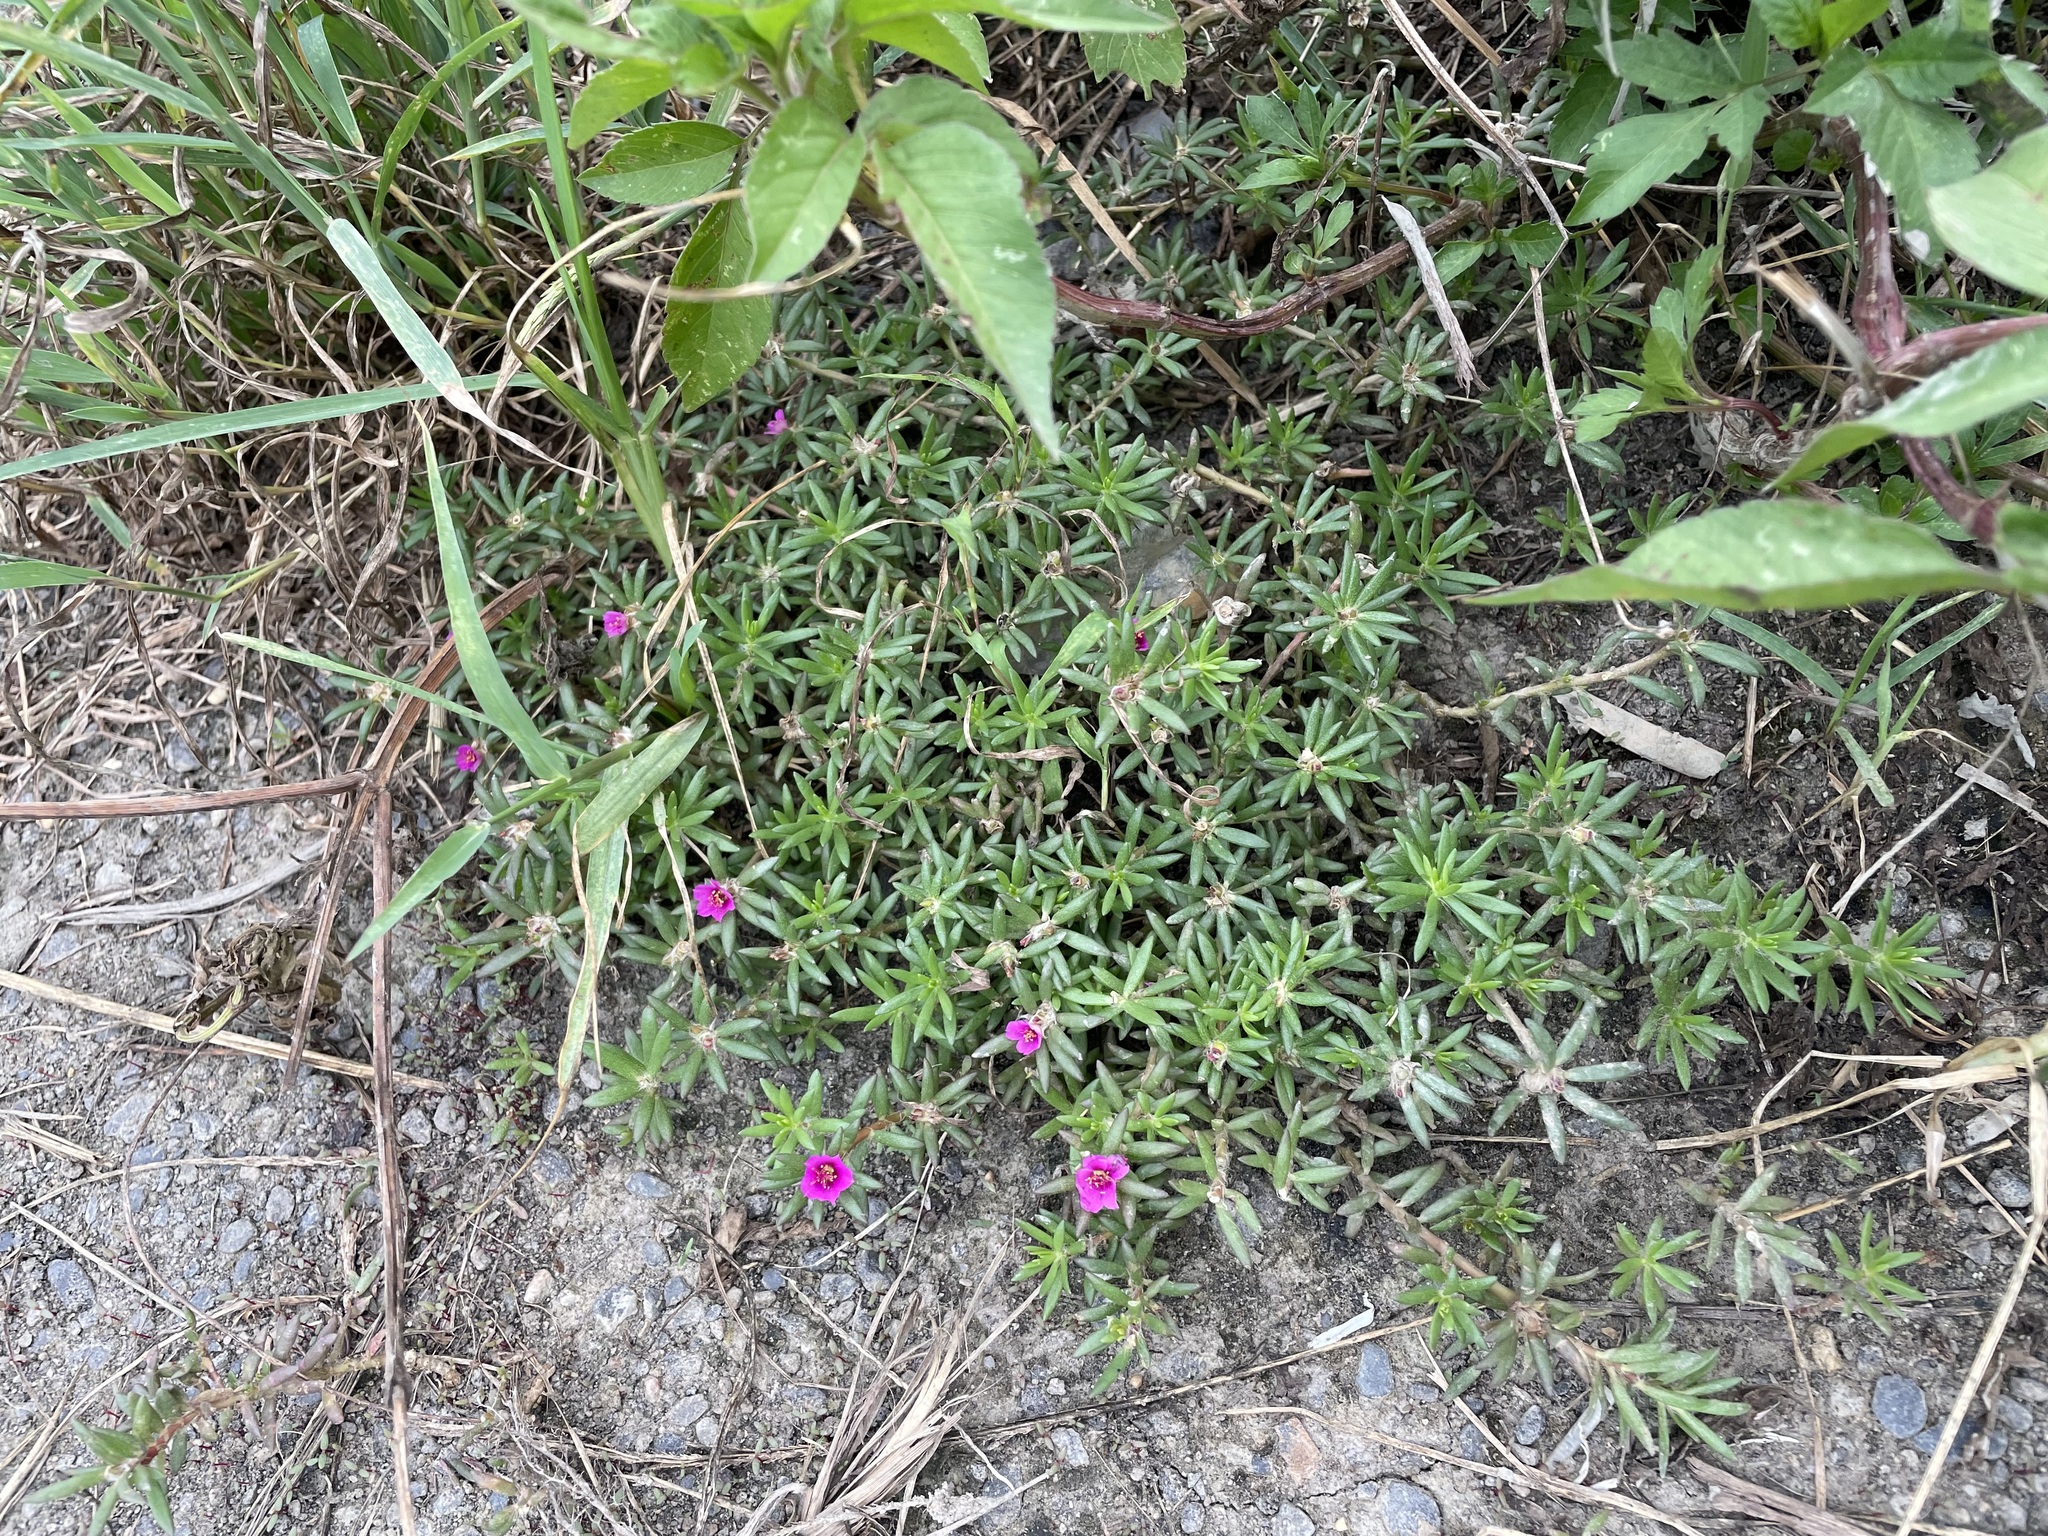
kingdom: Plantae
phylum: Tracheophyta
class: Magnoliopsida
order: Caryophyllales
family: Portulacaceae
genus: Portulaca
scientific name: Portulaca pilosa
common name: Kiss me quick
